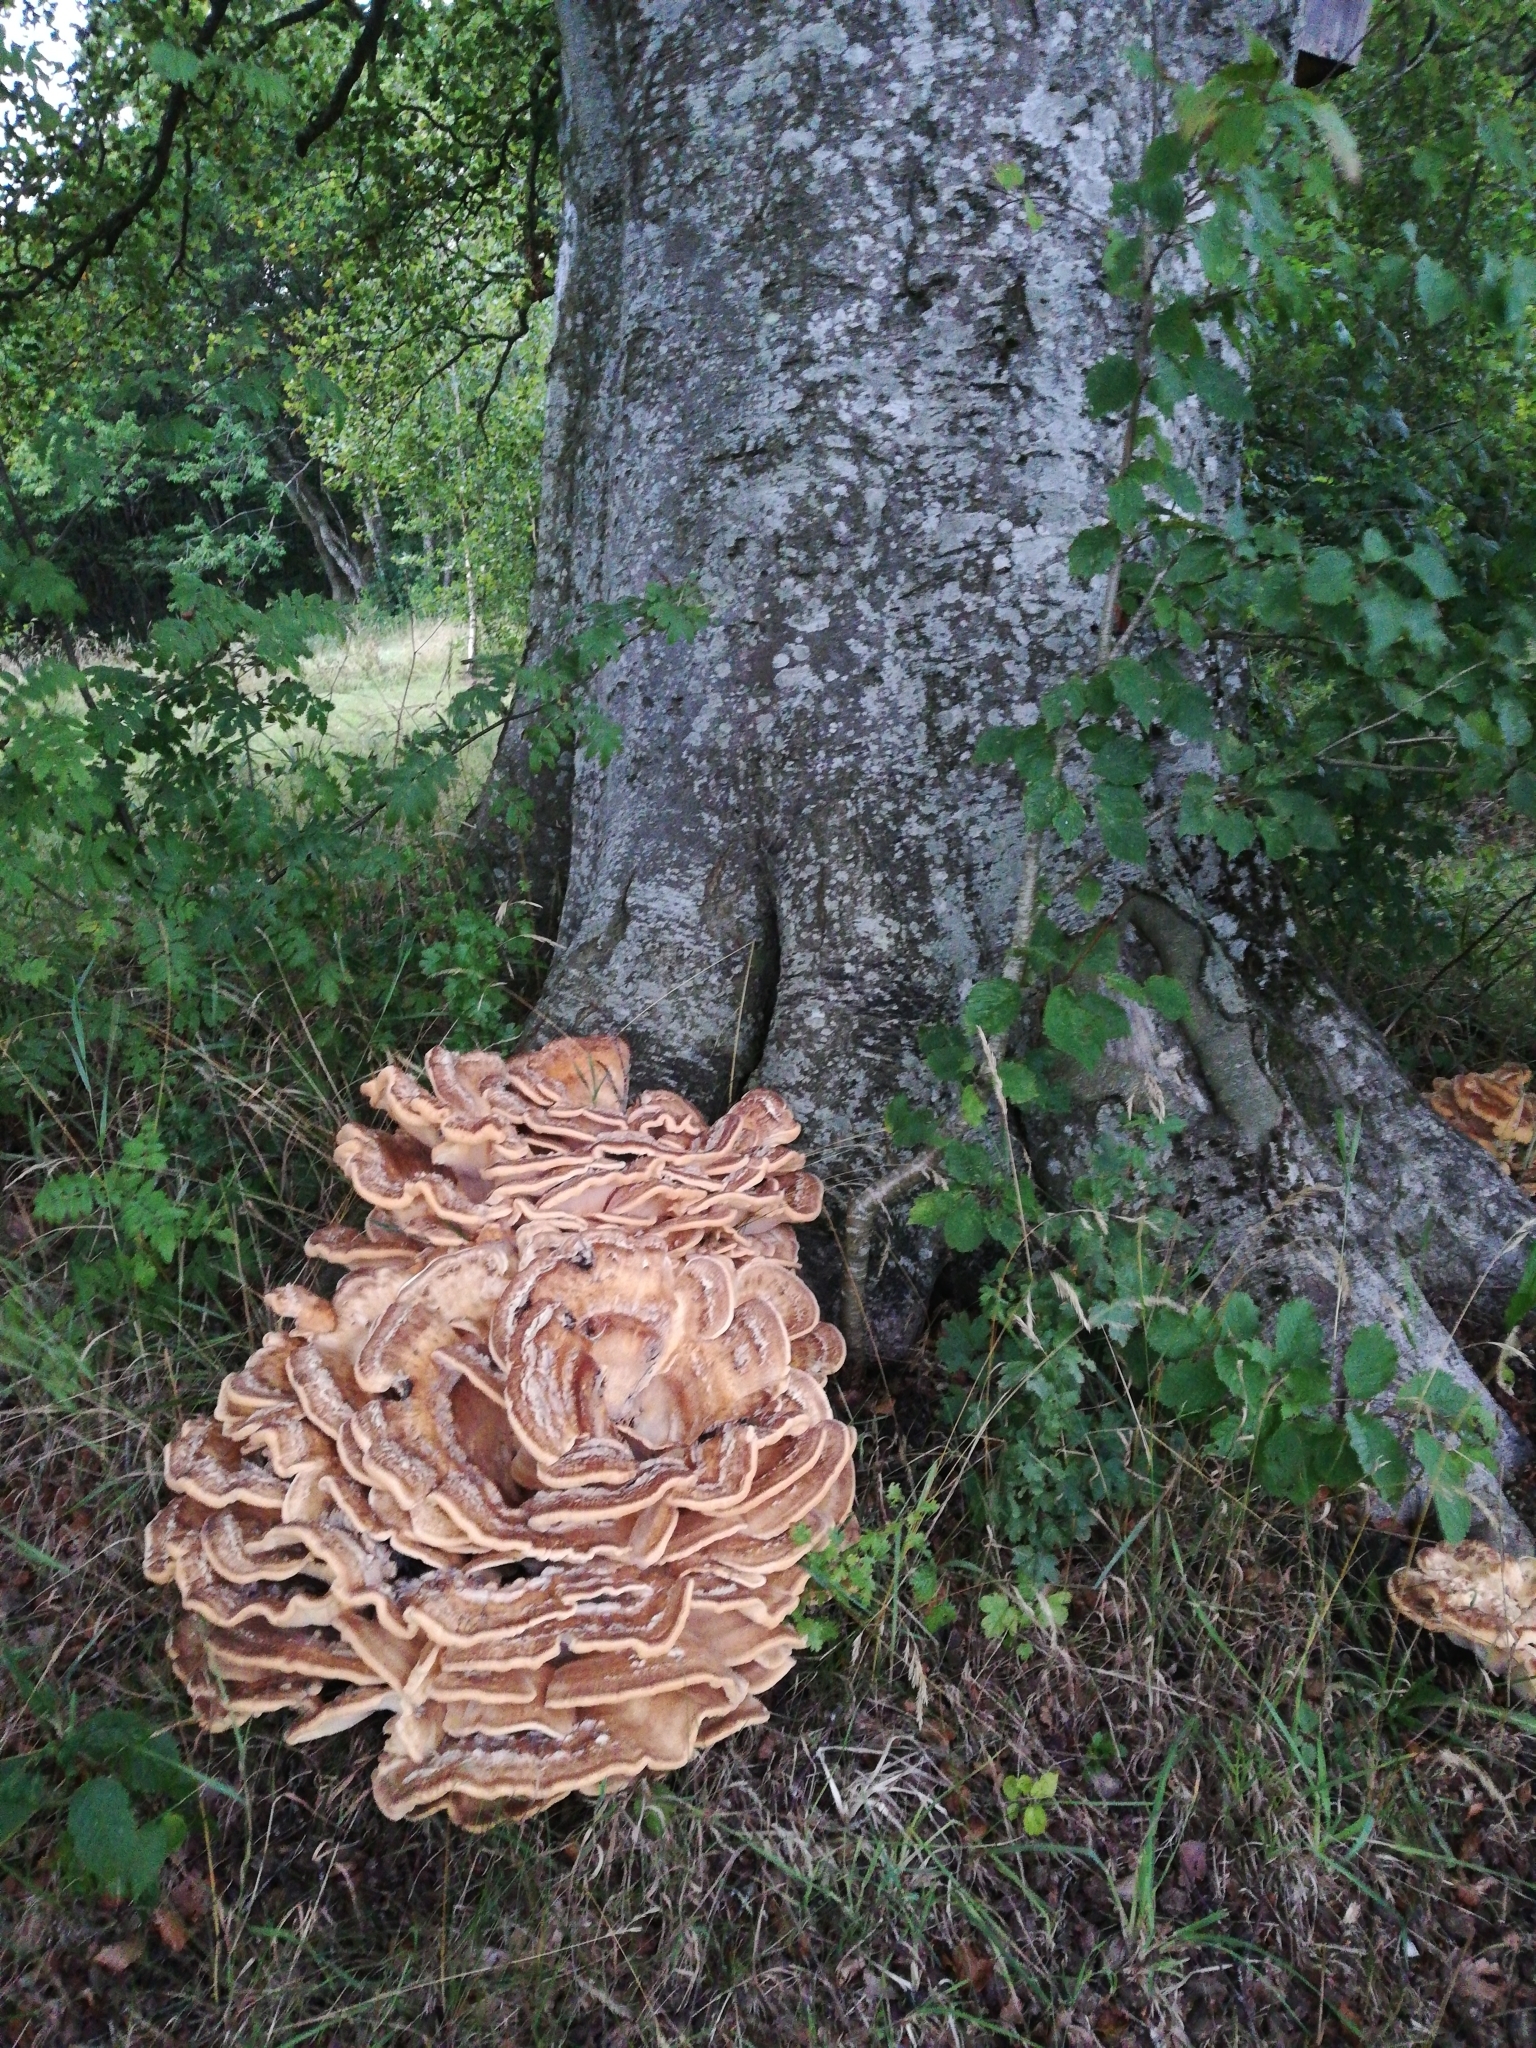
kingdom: Fungi
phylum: Basidiomycota
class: Agaricomycetes
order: Polyporales
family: Meripilaceae
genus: Meripilus
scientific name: Meripilus giganteus
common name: Giant polypore
